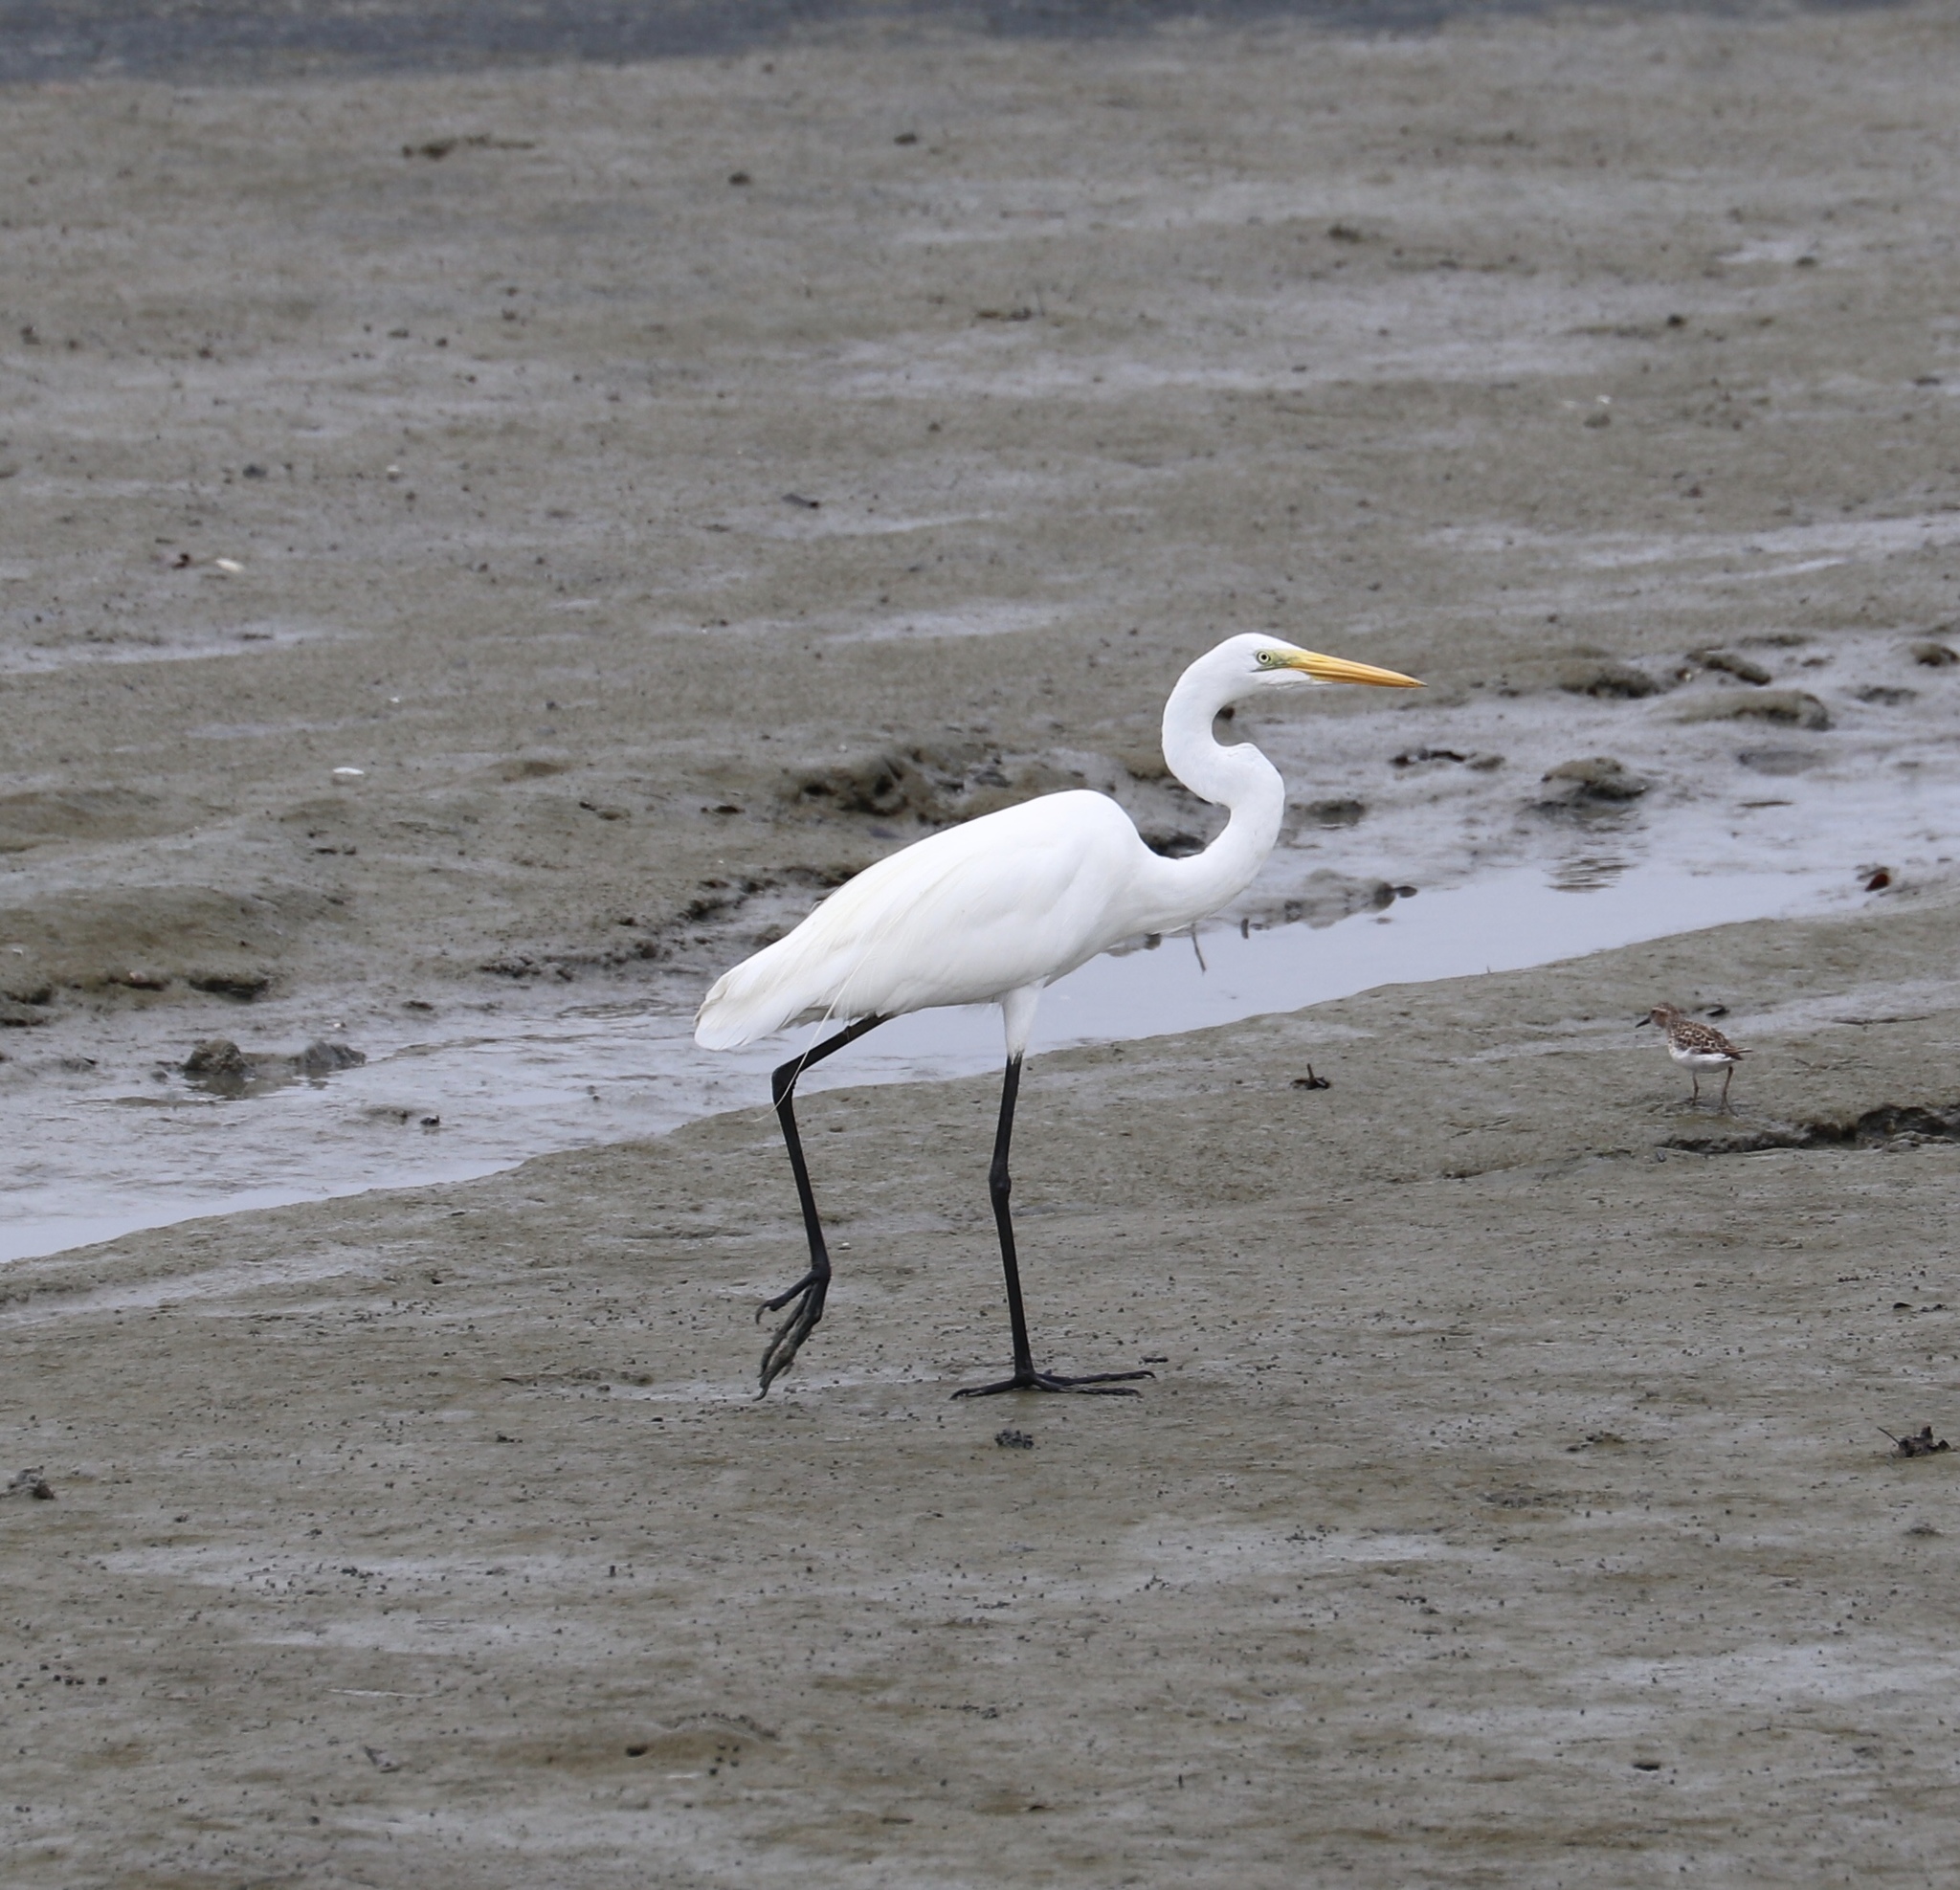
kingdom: Animalia
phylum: Chordata
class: Aves
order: Pelecaniformes
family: Ardeidae
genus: Ardea
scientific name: Ardea alba
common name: Great egret
